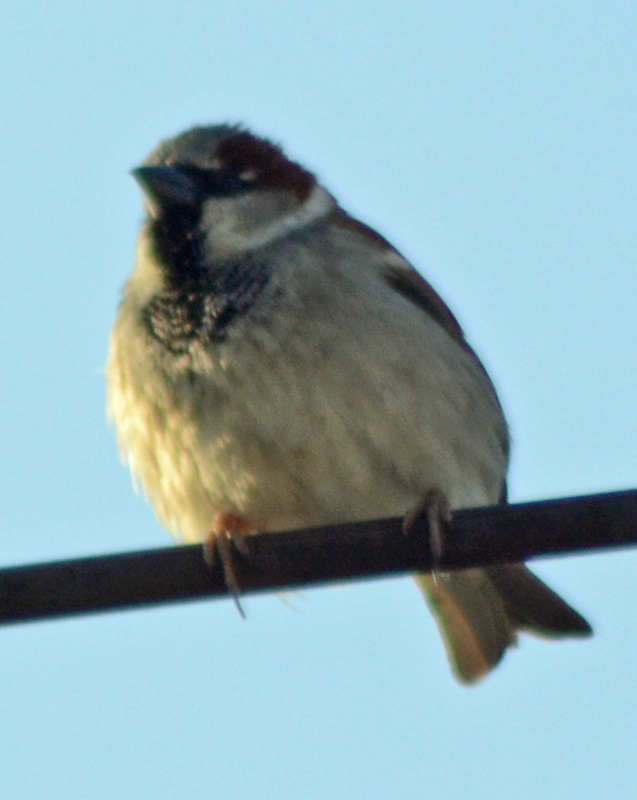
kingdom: Animalia
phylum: Chordata
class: Aves
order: Passeriformes
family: Passeridae
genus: Passer
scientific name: Passer domesticus
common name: House sparrow
